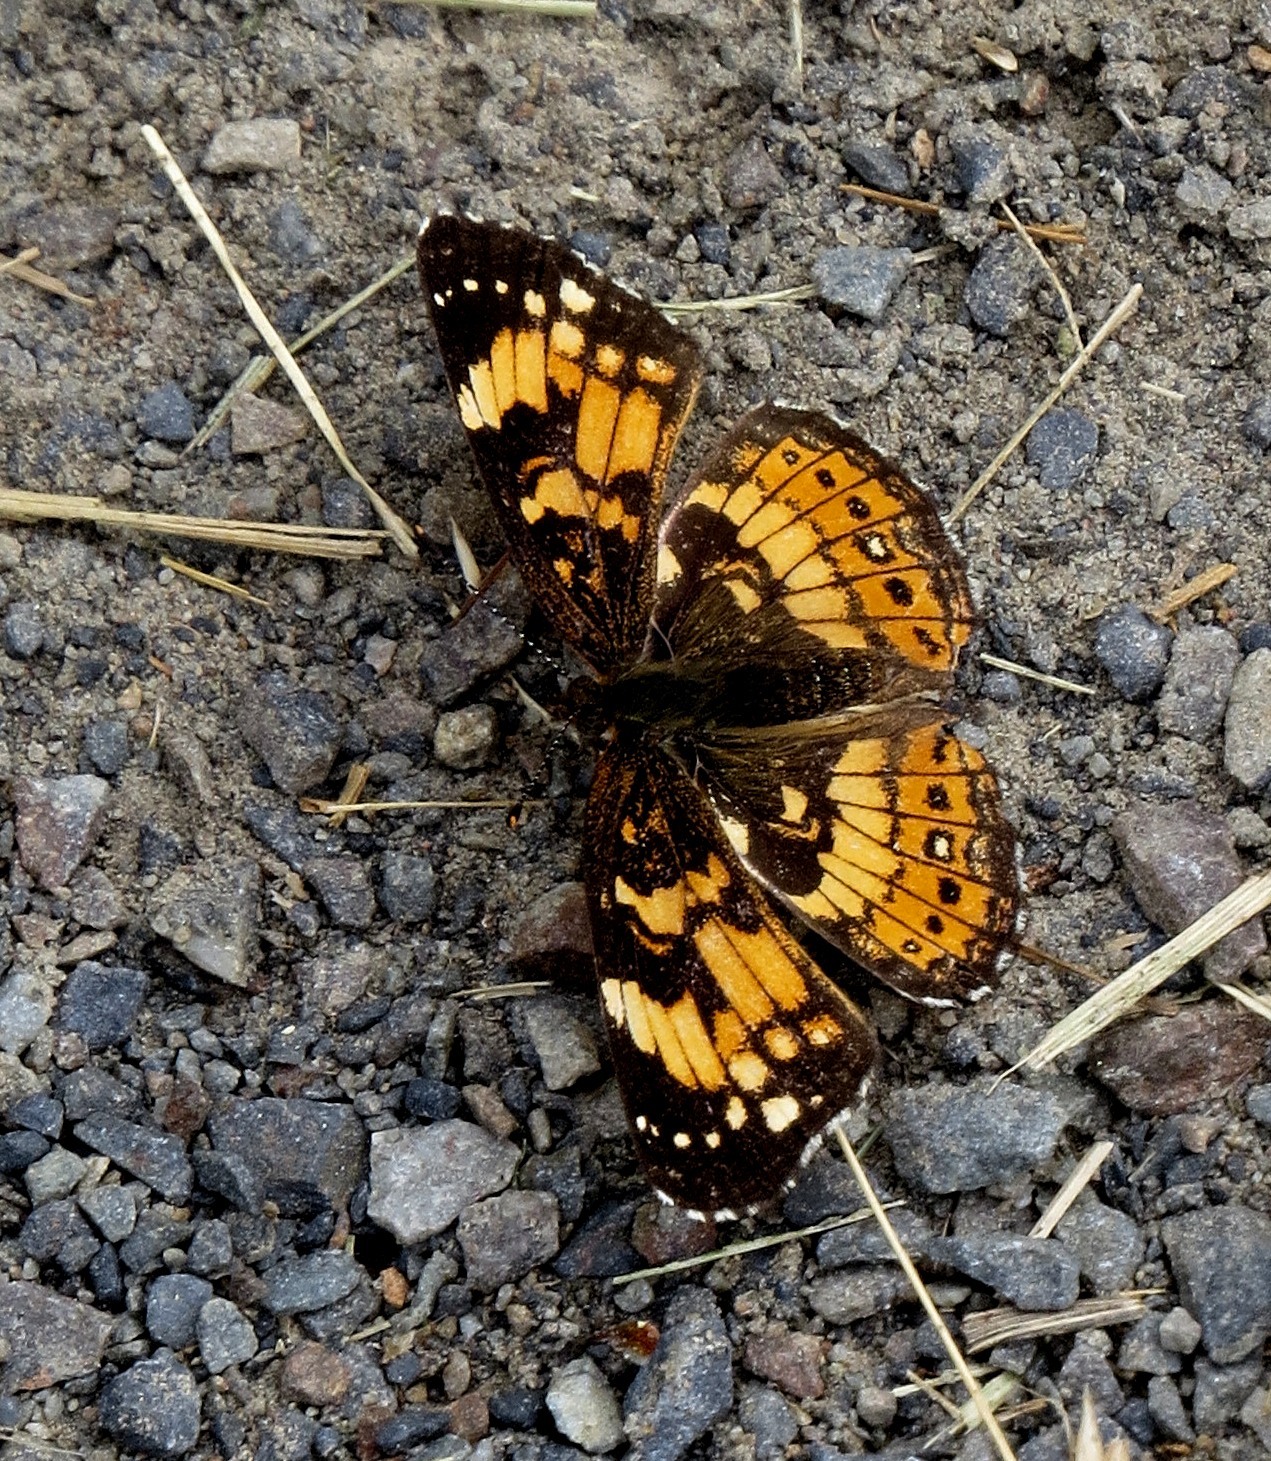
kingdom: Animalia
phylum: Arthropoda
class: Insecta
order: Lepidoptera
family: Nymphalidae
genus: Chlosyne
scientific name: Chlosyne nycteis
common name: Silvery checkerspot
